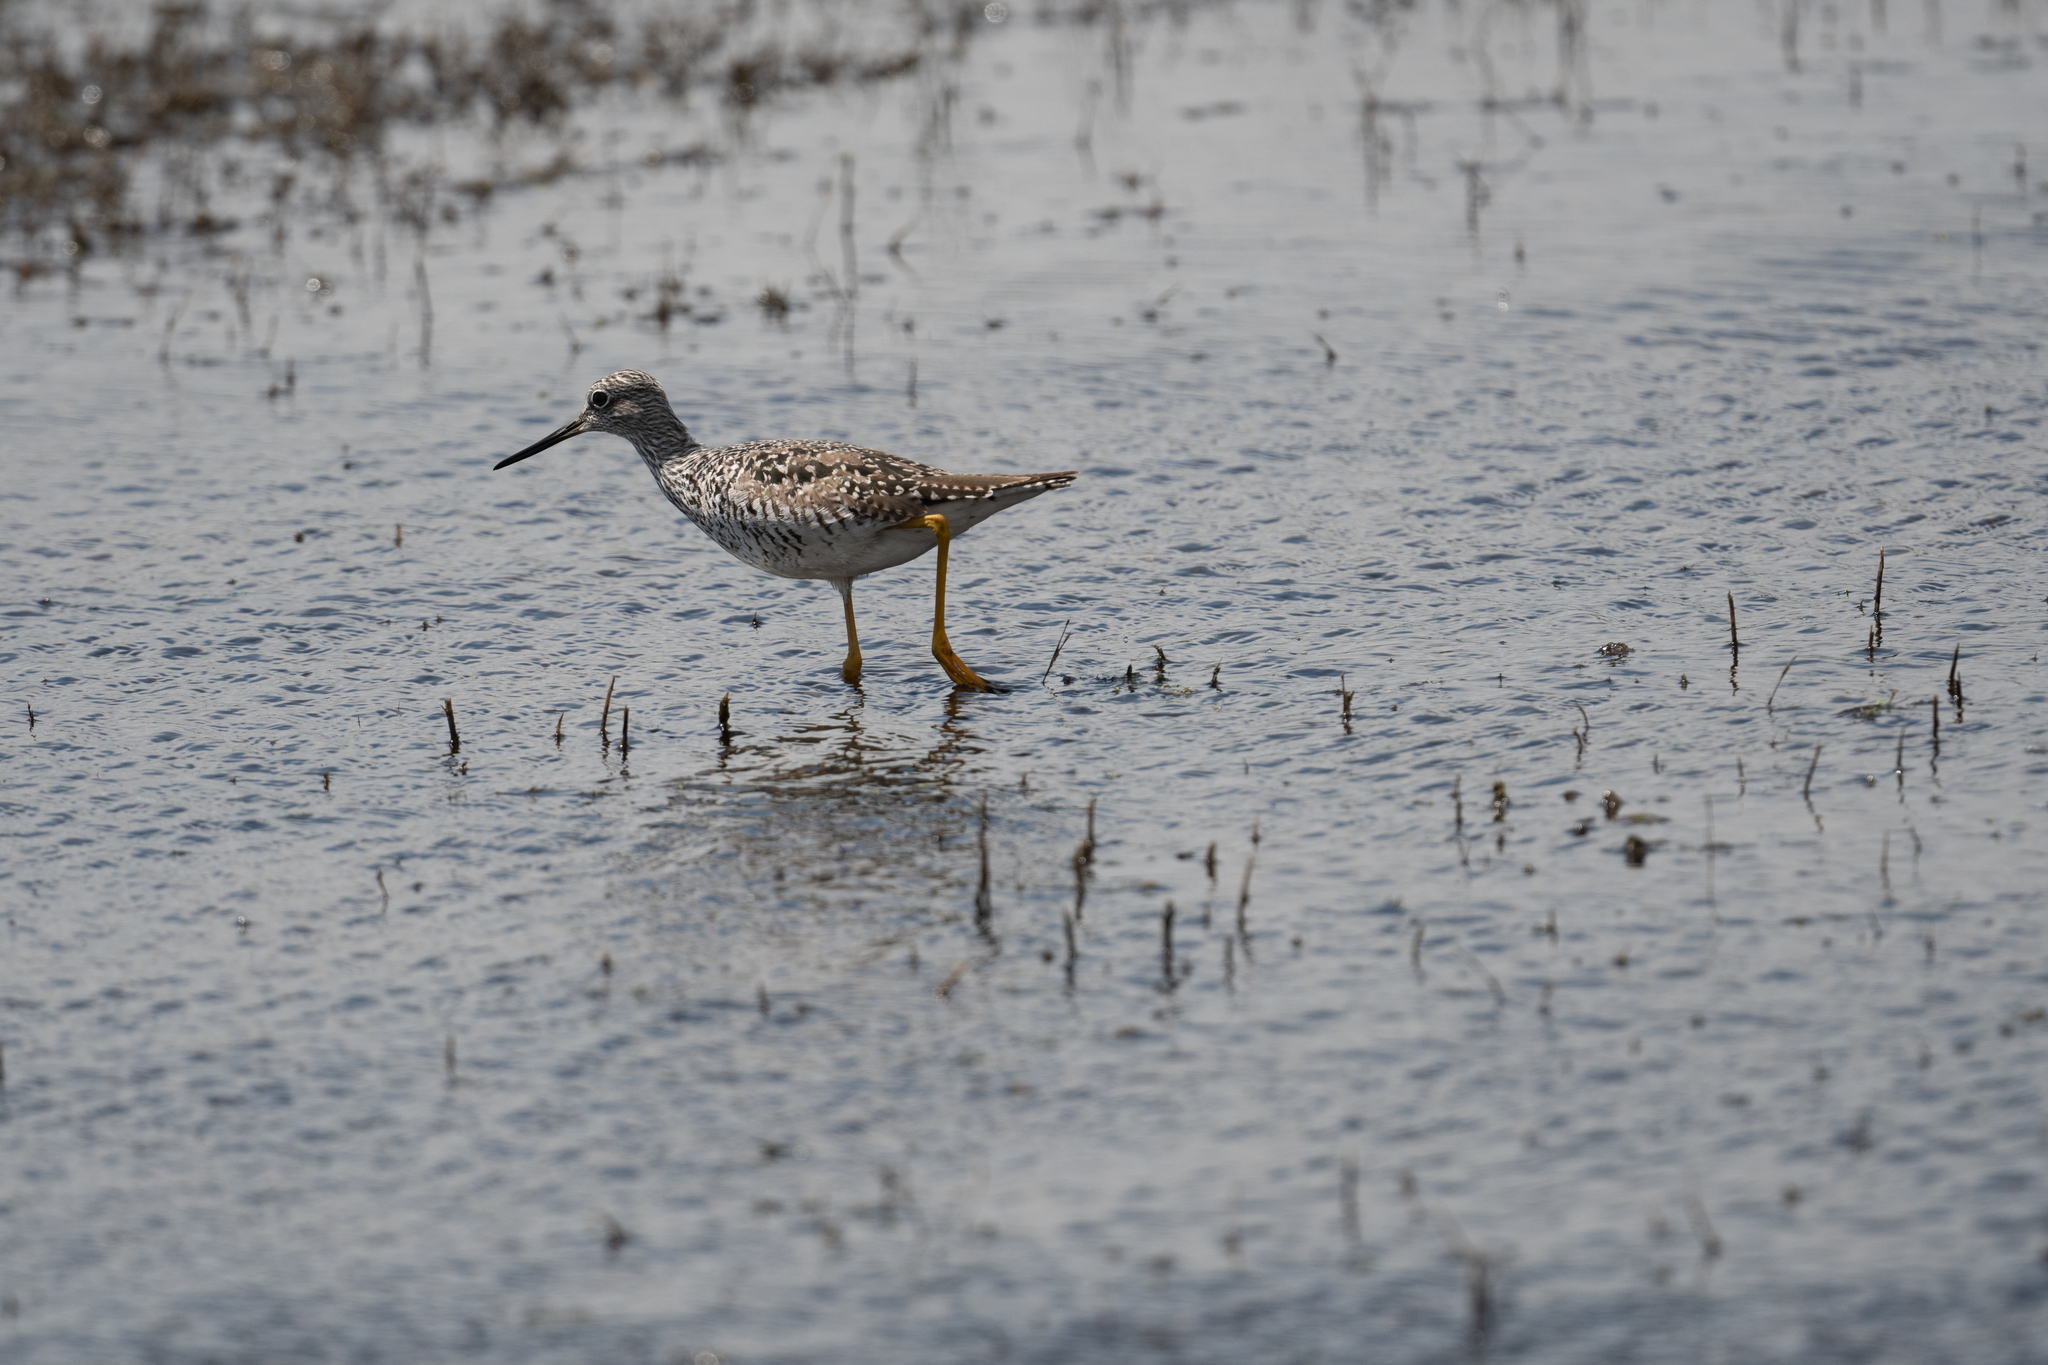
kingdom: Animalia
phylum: Chordata
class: Aves
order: Charadriiformes
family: Scolopacidae
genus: Tringa
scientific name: Tringa melanoleuca
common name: Greater yellowlegs
